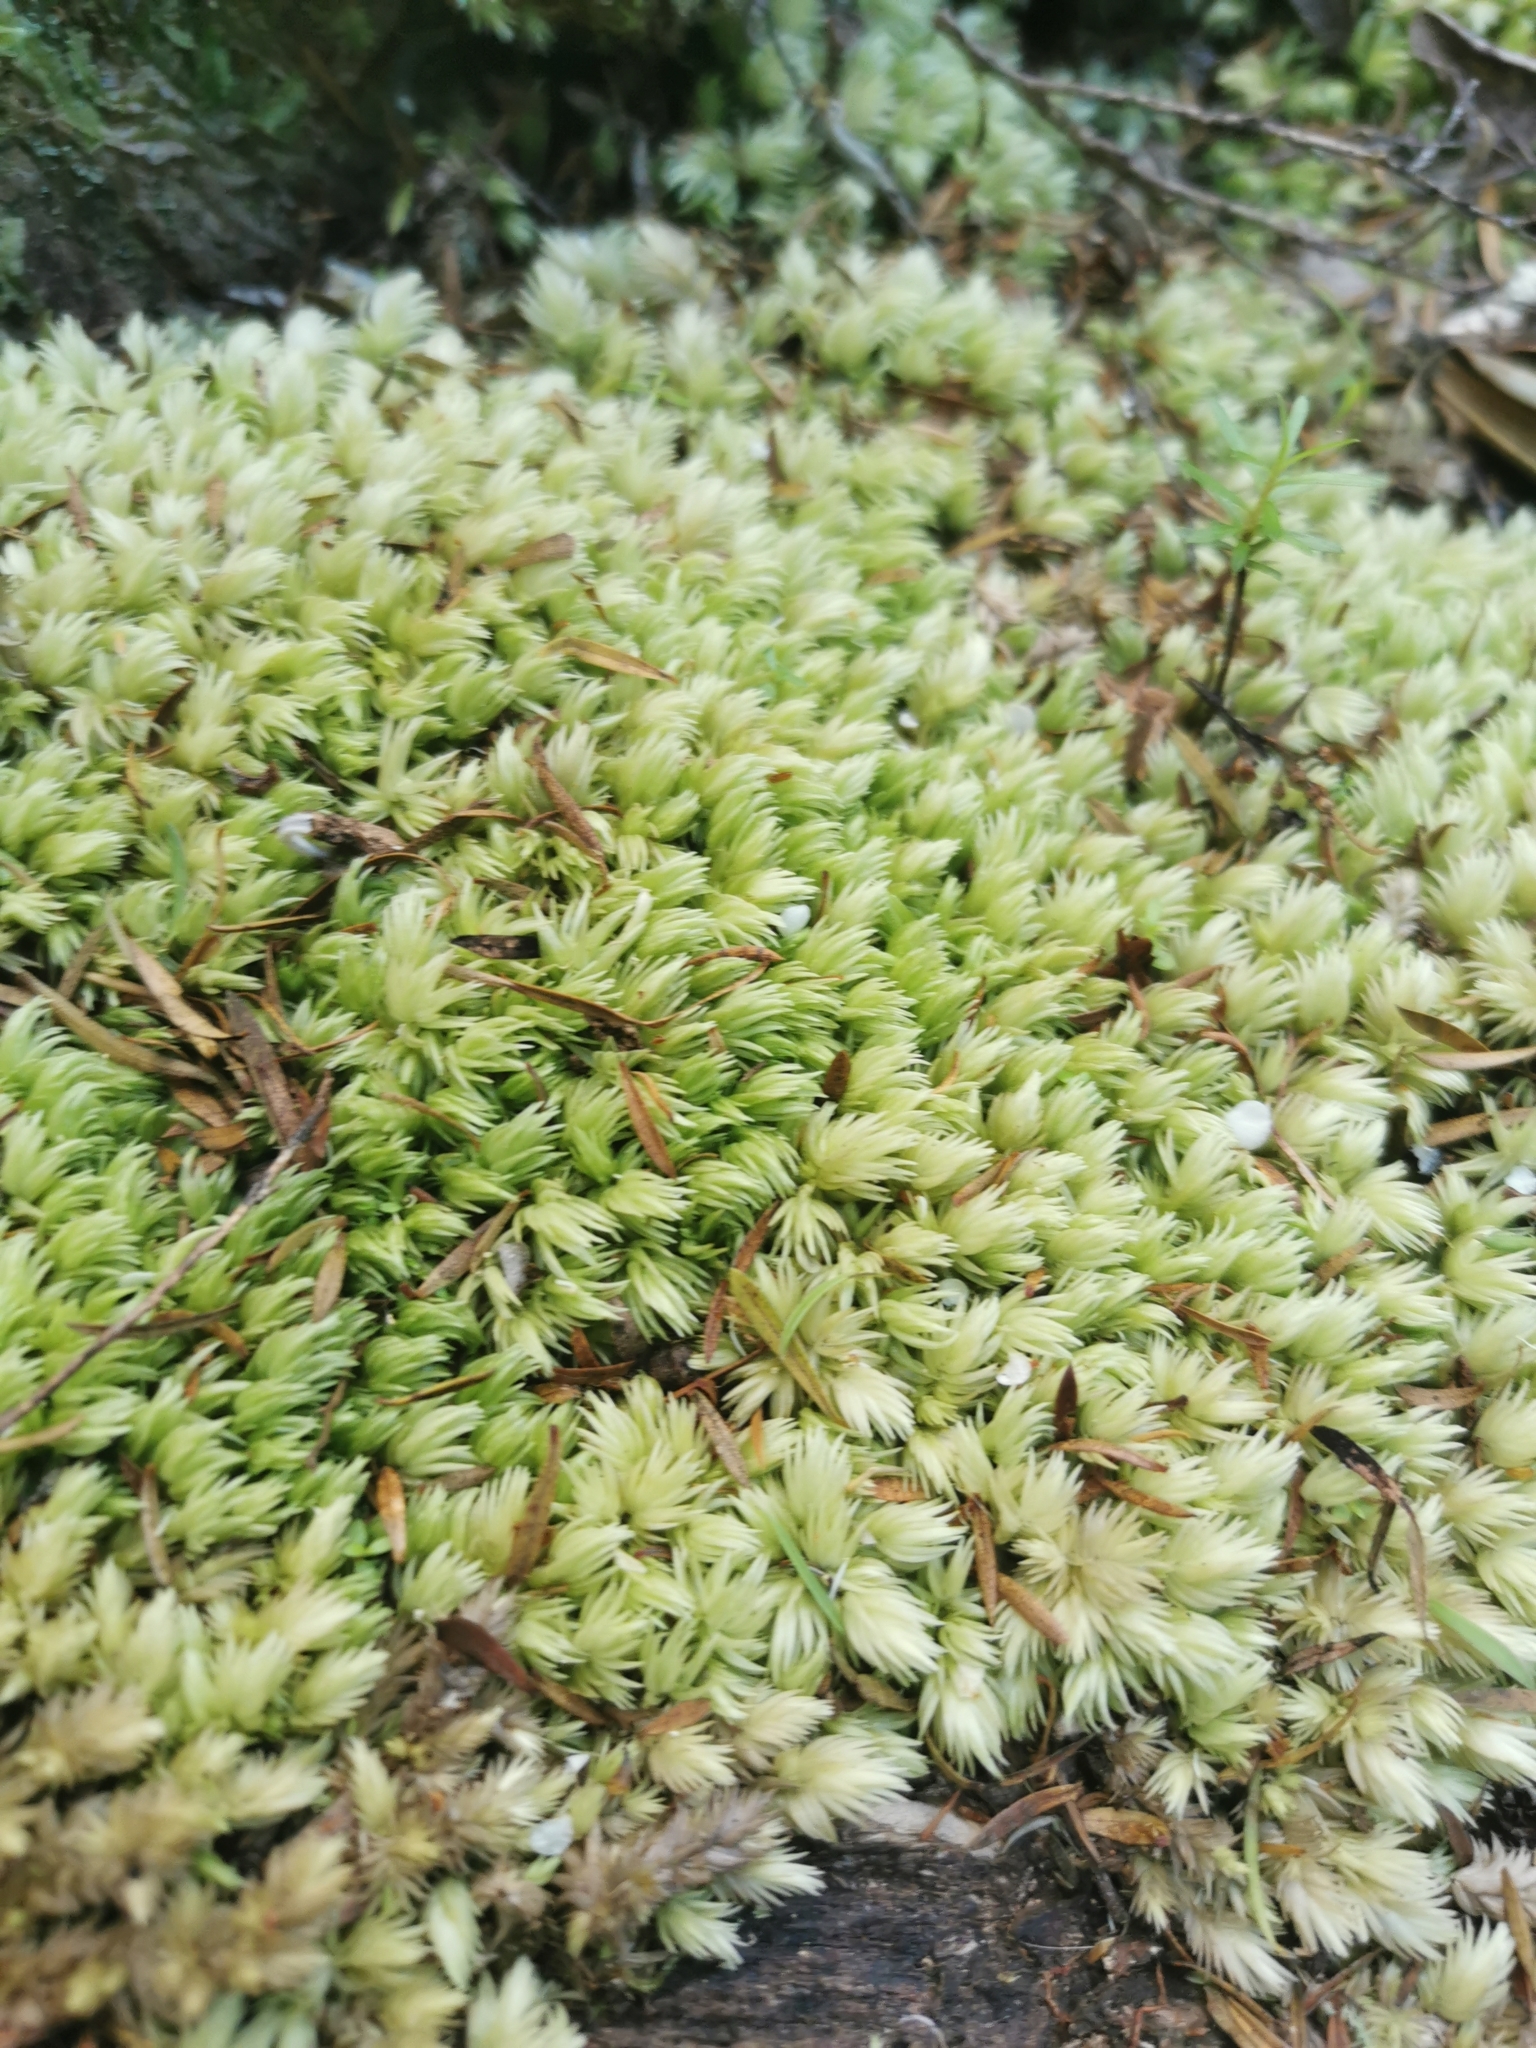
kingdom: Plantae
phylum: Bryophyta
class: Bryopsida
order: Dicranales
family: Leucobryaceae
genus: Leucobryum
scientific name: Leucobryum javense
